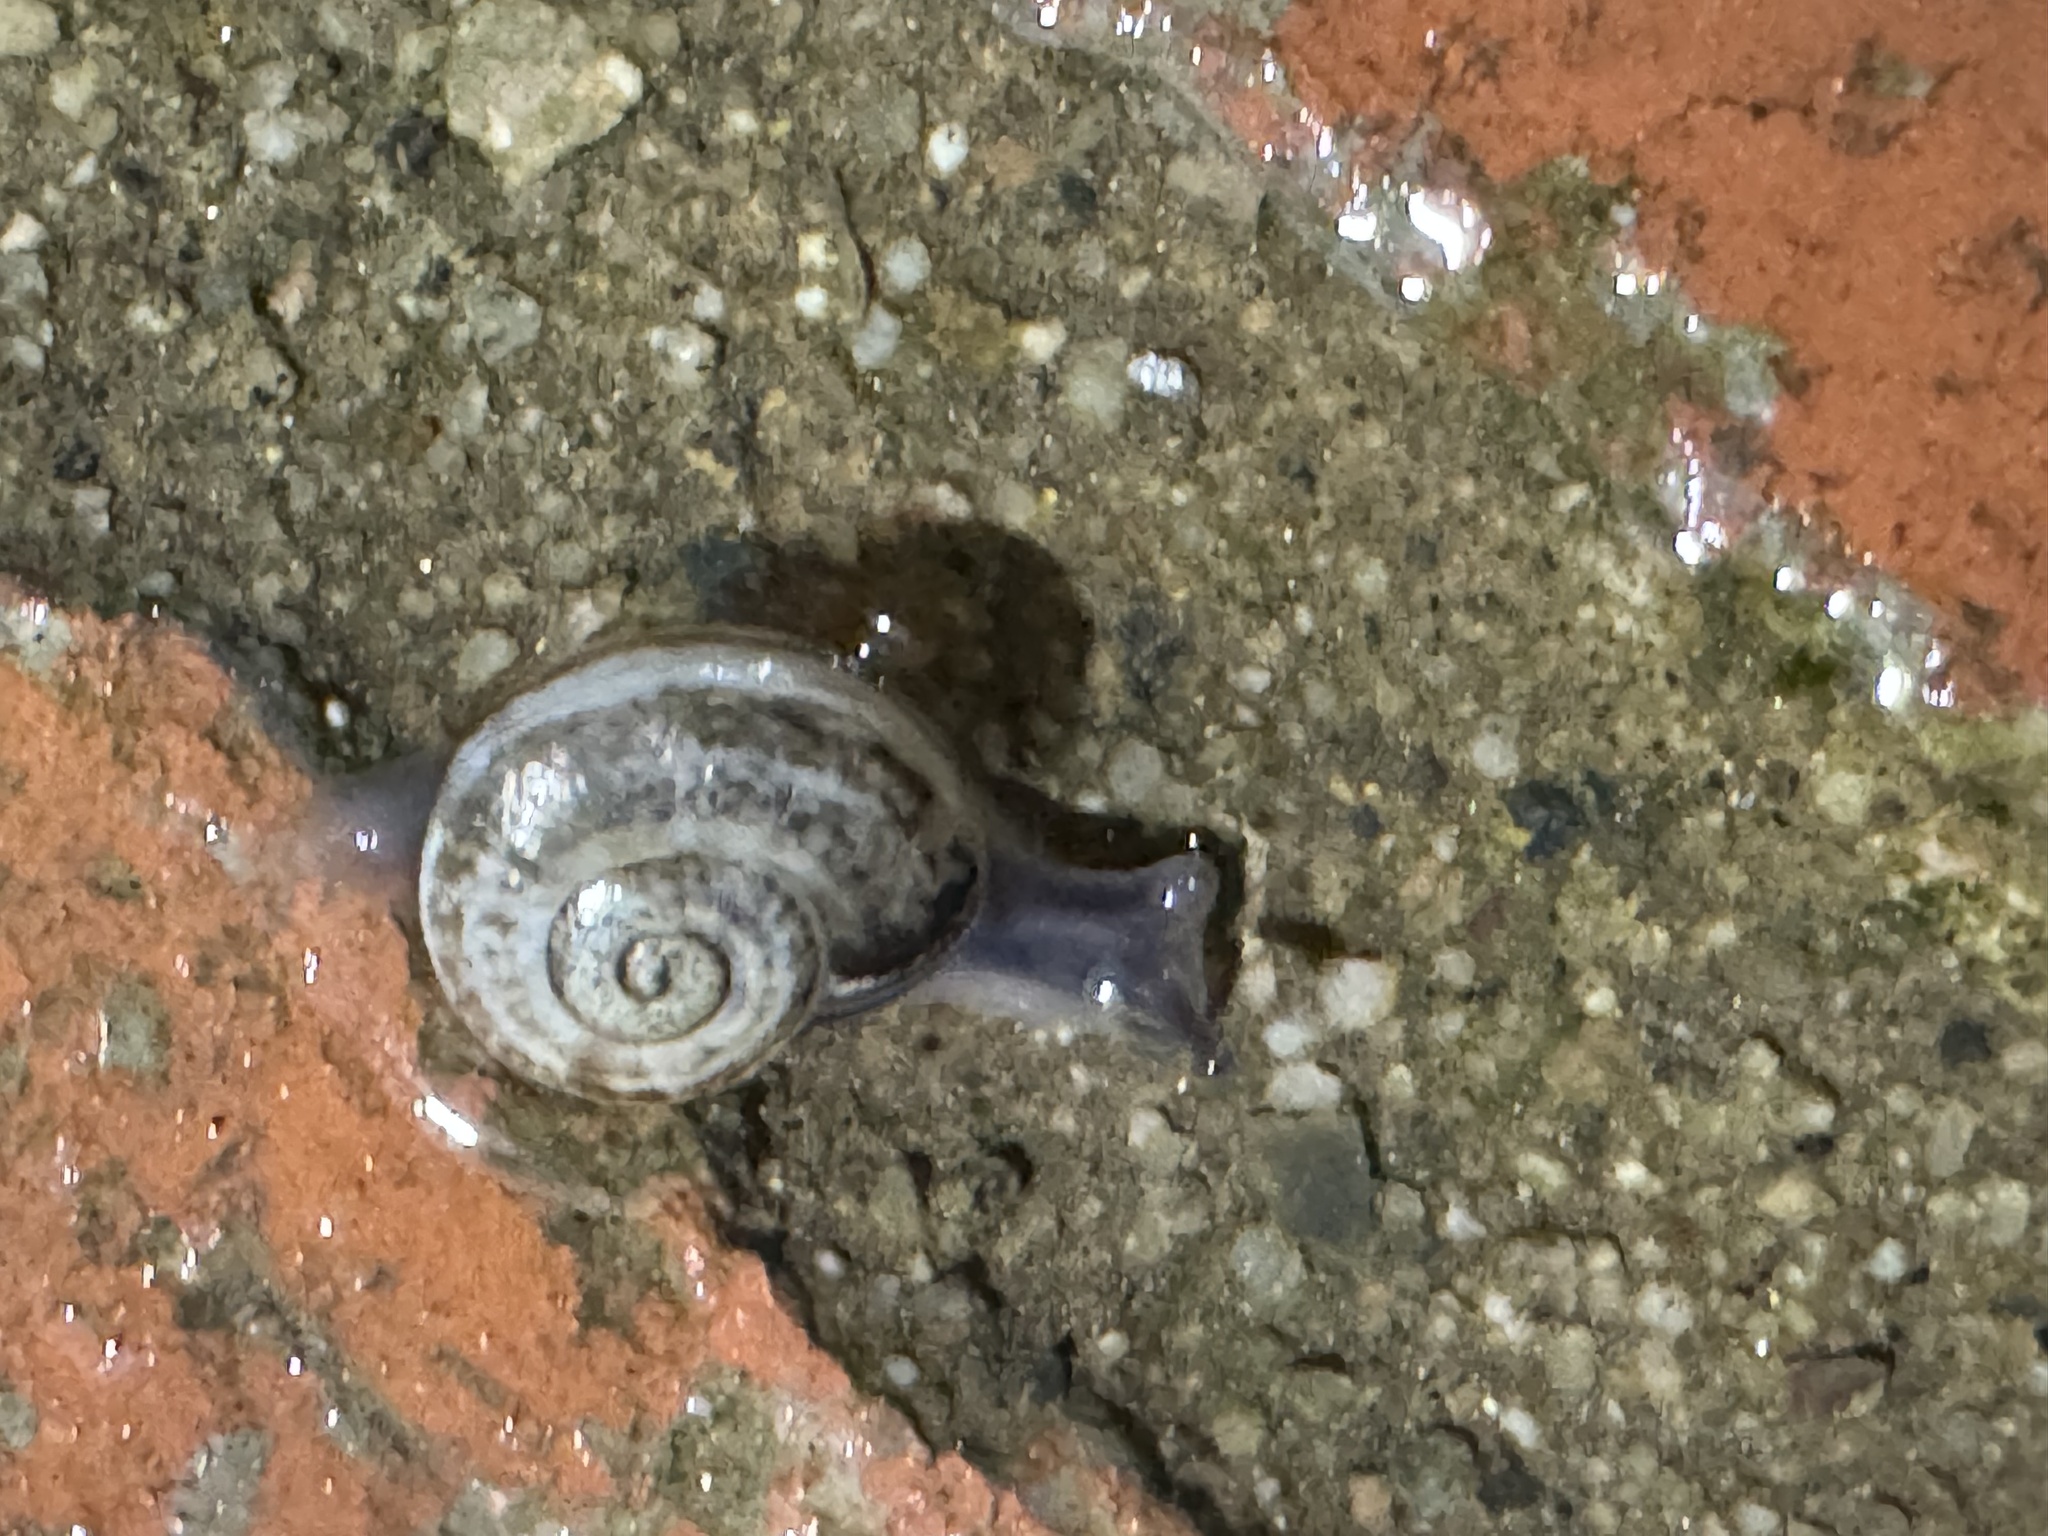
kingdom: Animalia
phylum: Mollusca
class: Gastropoda
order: Stylommatophora
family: Helicidae
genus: Otala
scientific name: Otala lactea
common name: Milk snail
